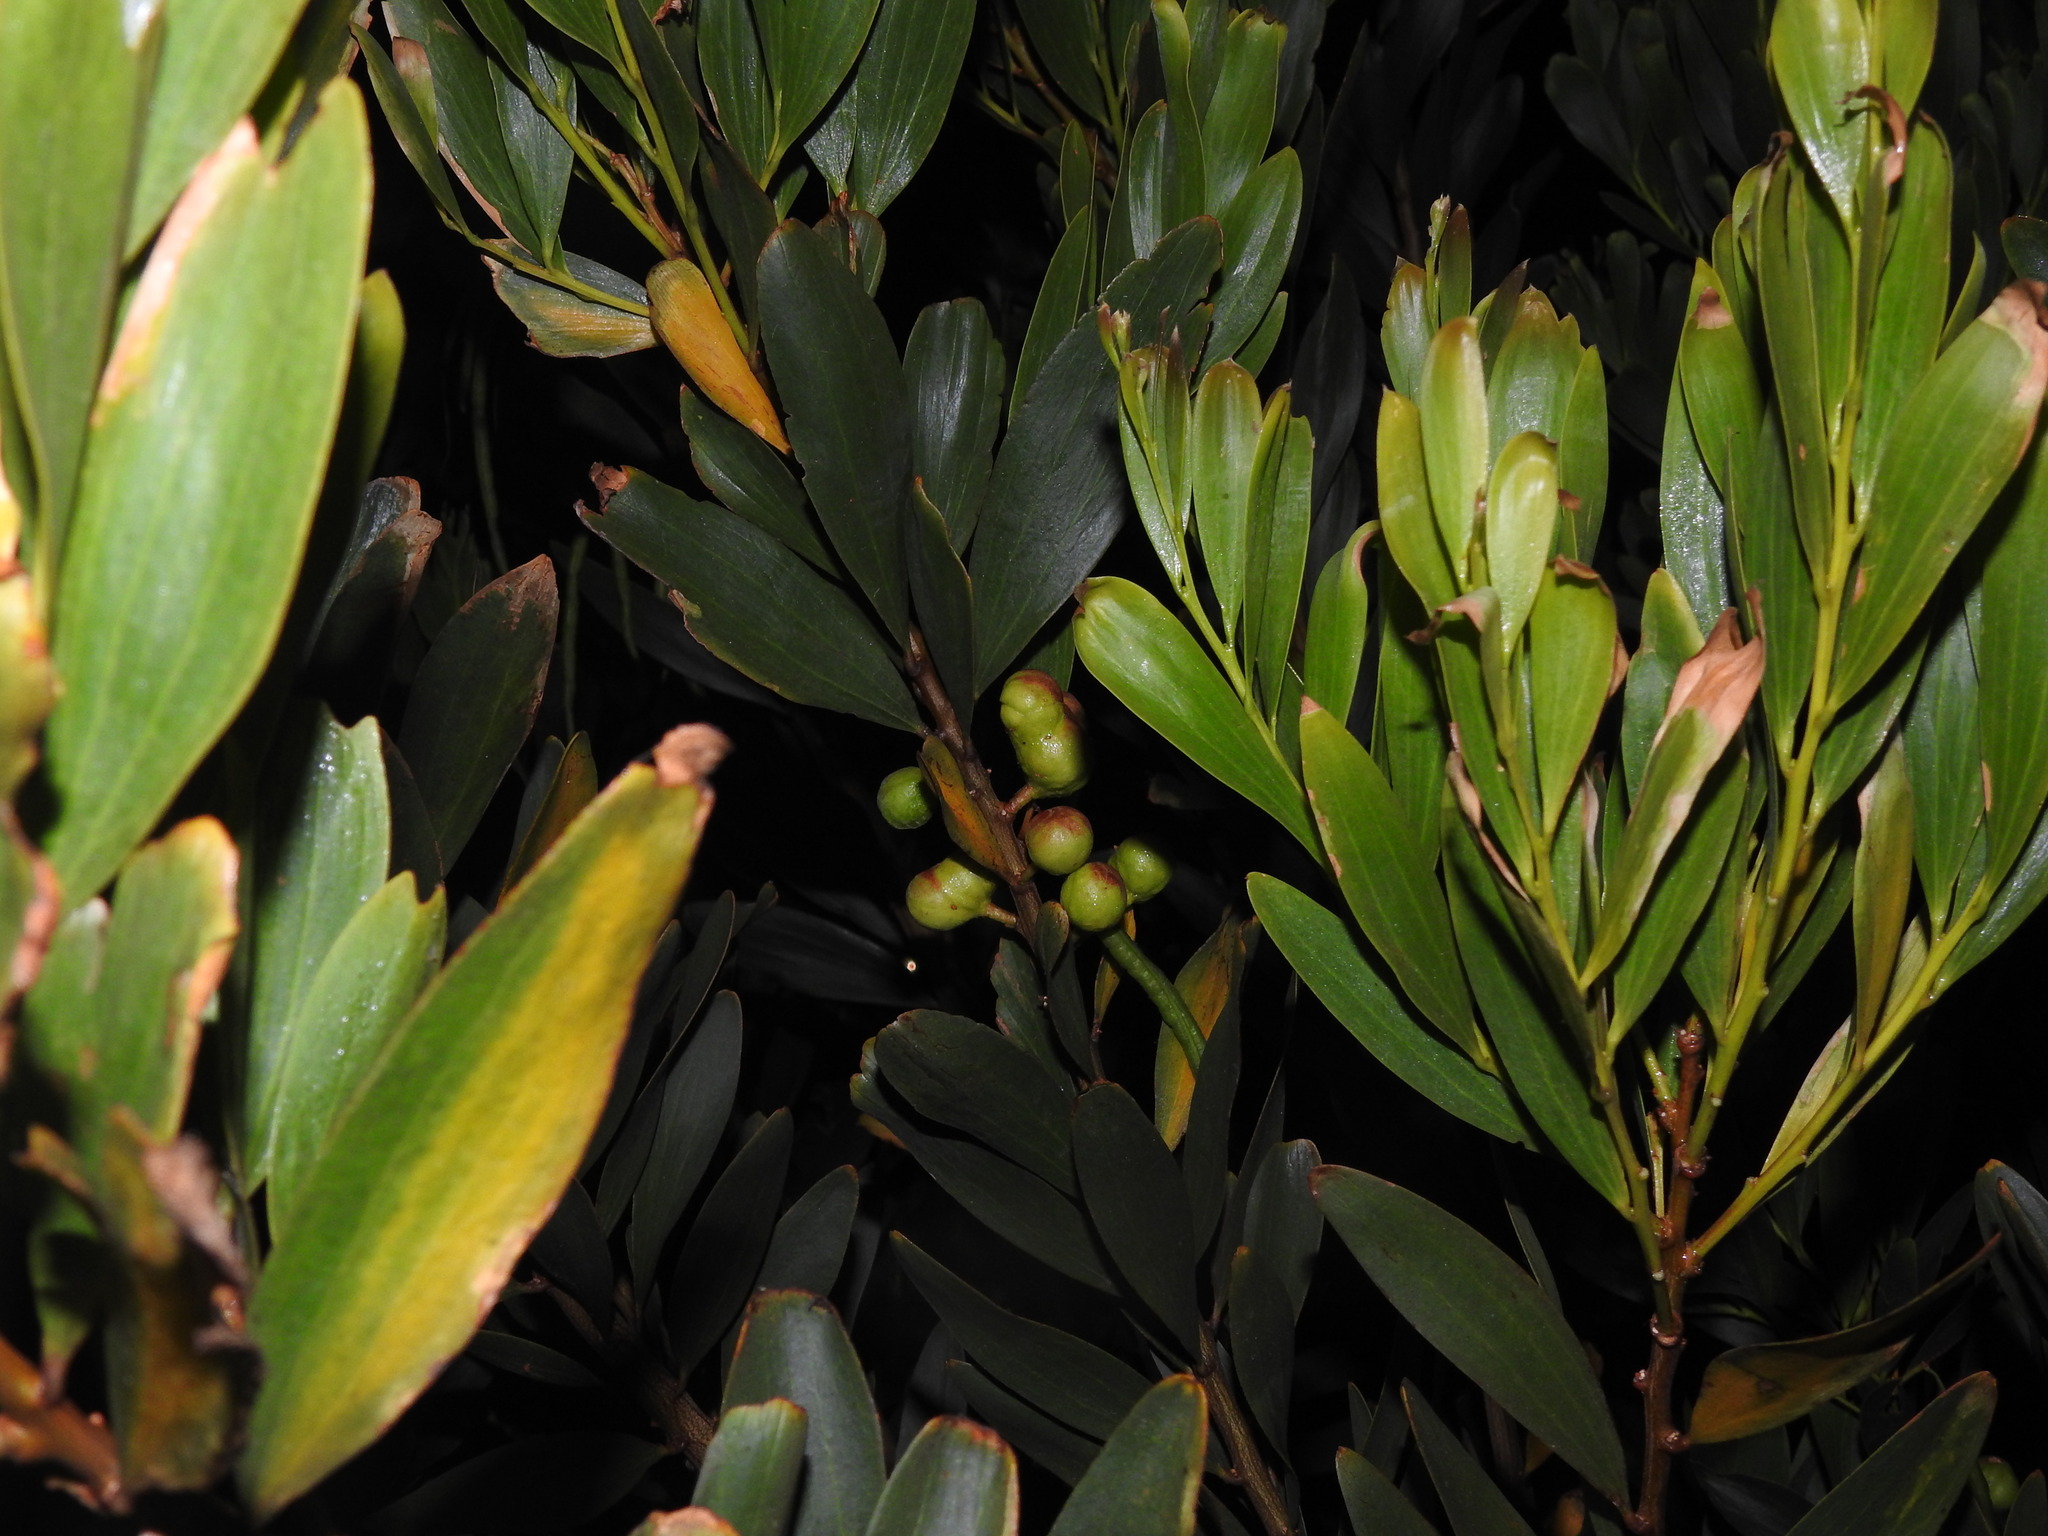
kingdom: Animalia
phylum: Arthropoda
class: Insecta
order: Hymenoptera
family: Pteromalidae
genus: Trichilogaster
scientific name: Trichilogaster acaciaelongifoliae
